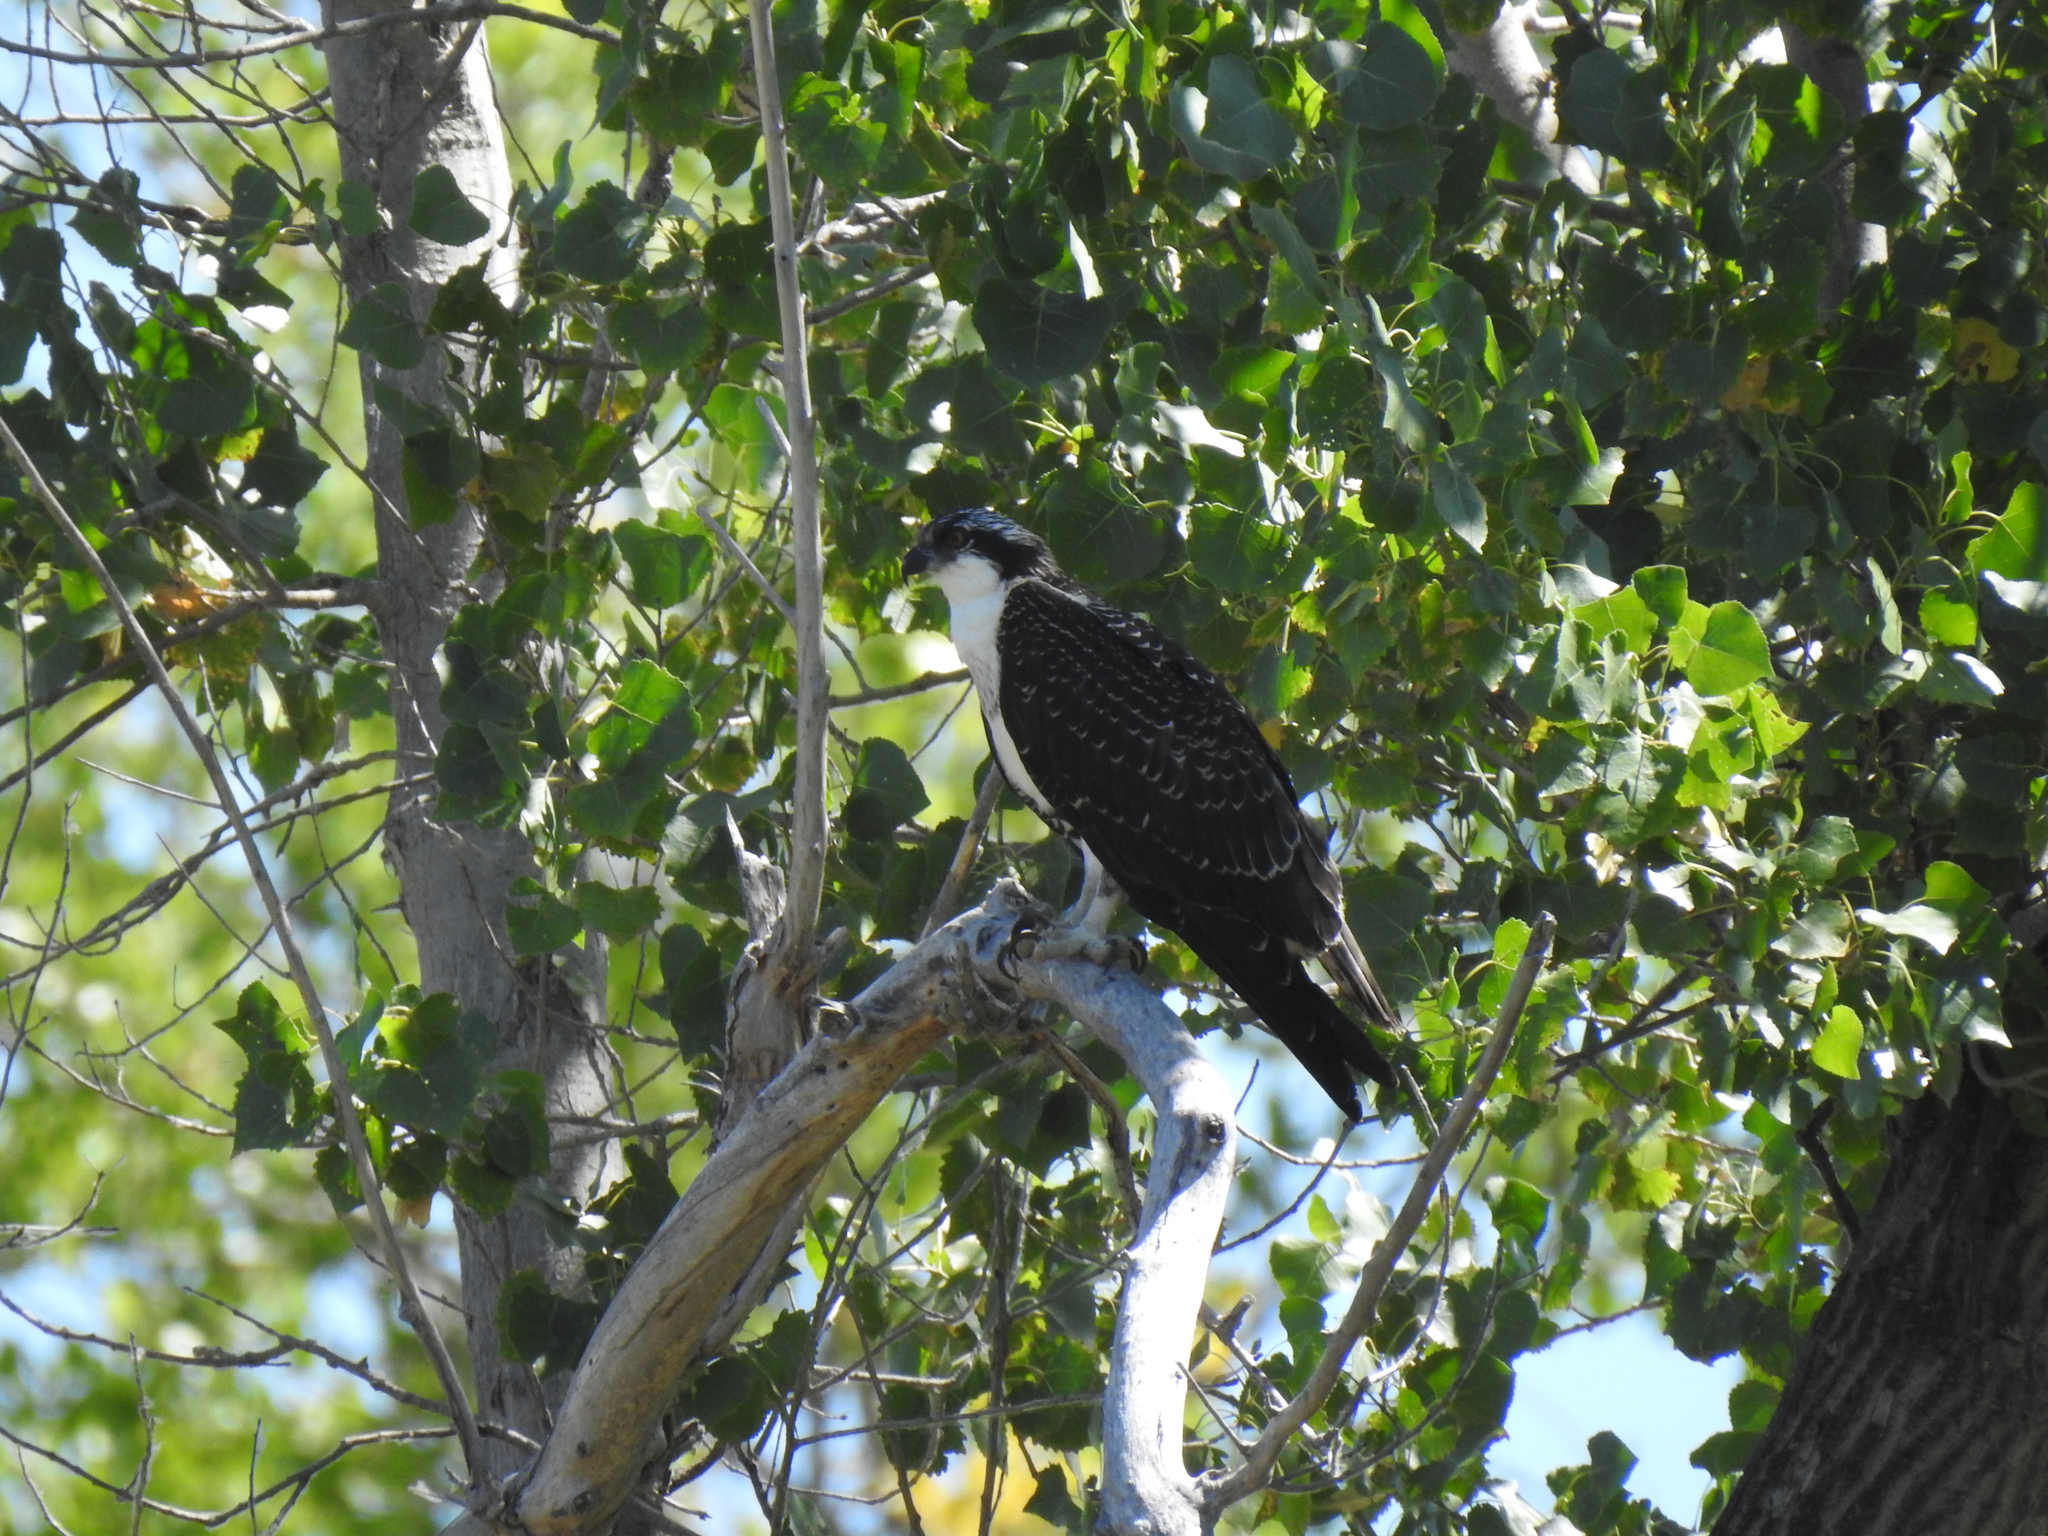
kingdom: Animalia
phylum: Chordata
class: Aves
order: Accipitriformes
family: Pandionidae
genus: Pandion
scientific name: Pandion haliaetus
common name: Osprey
